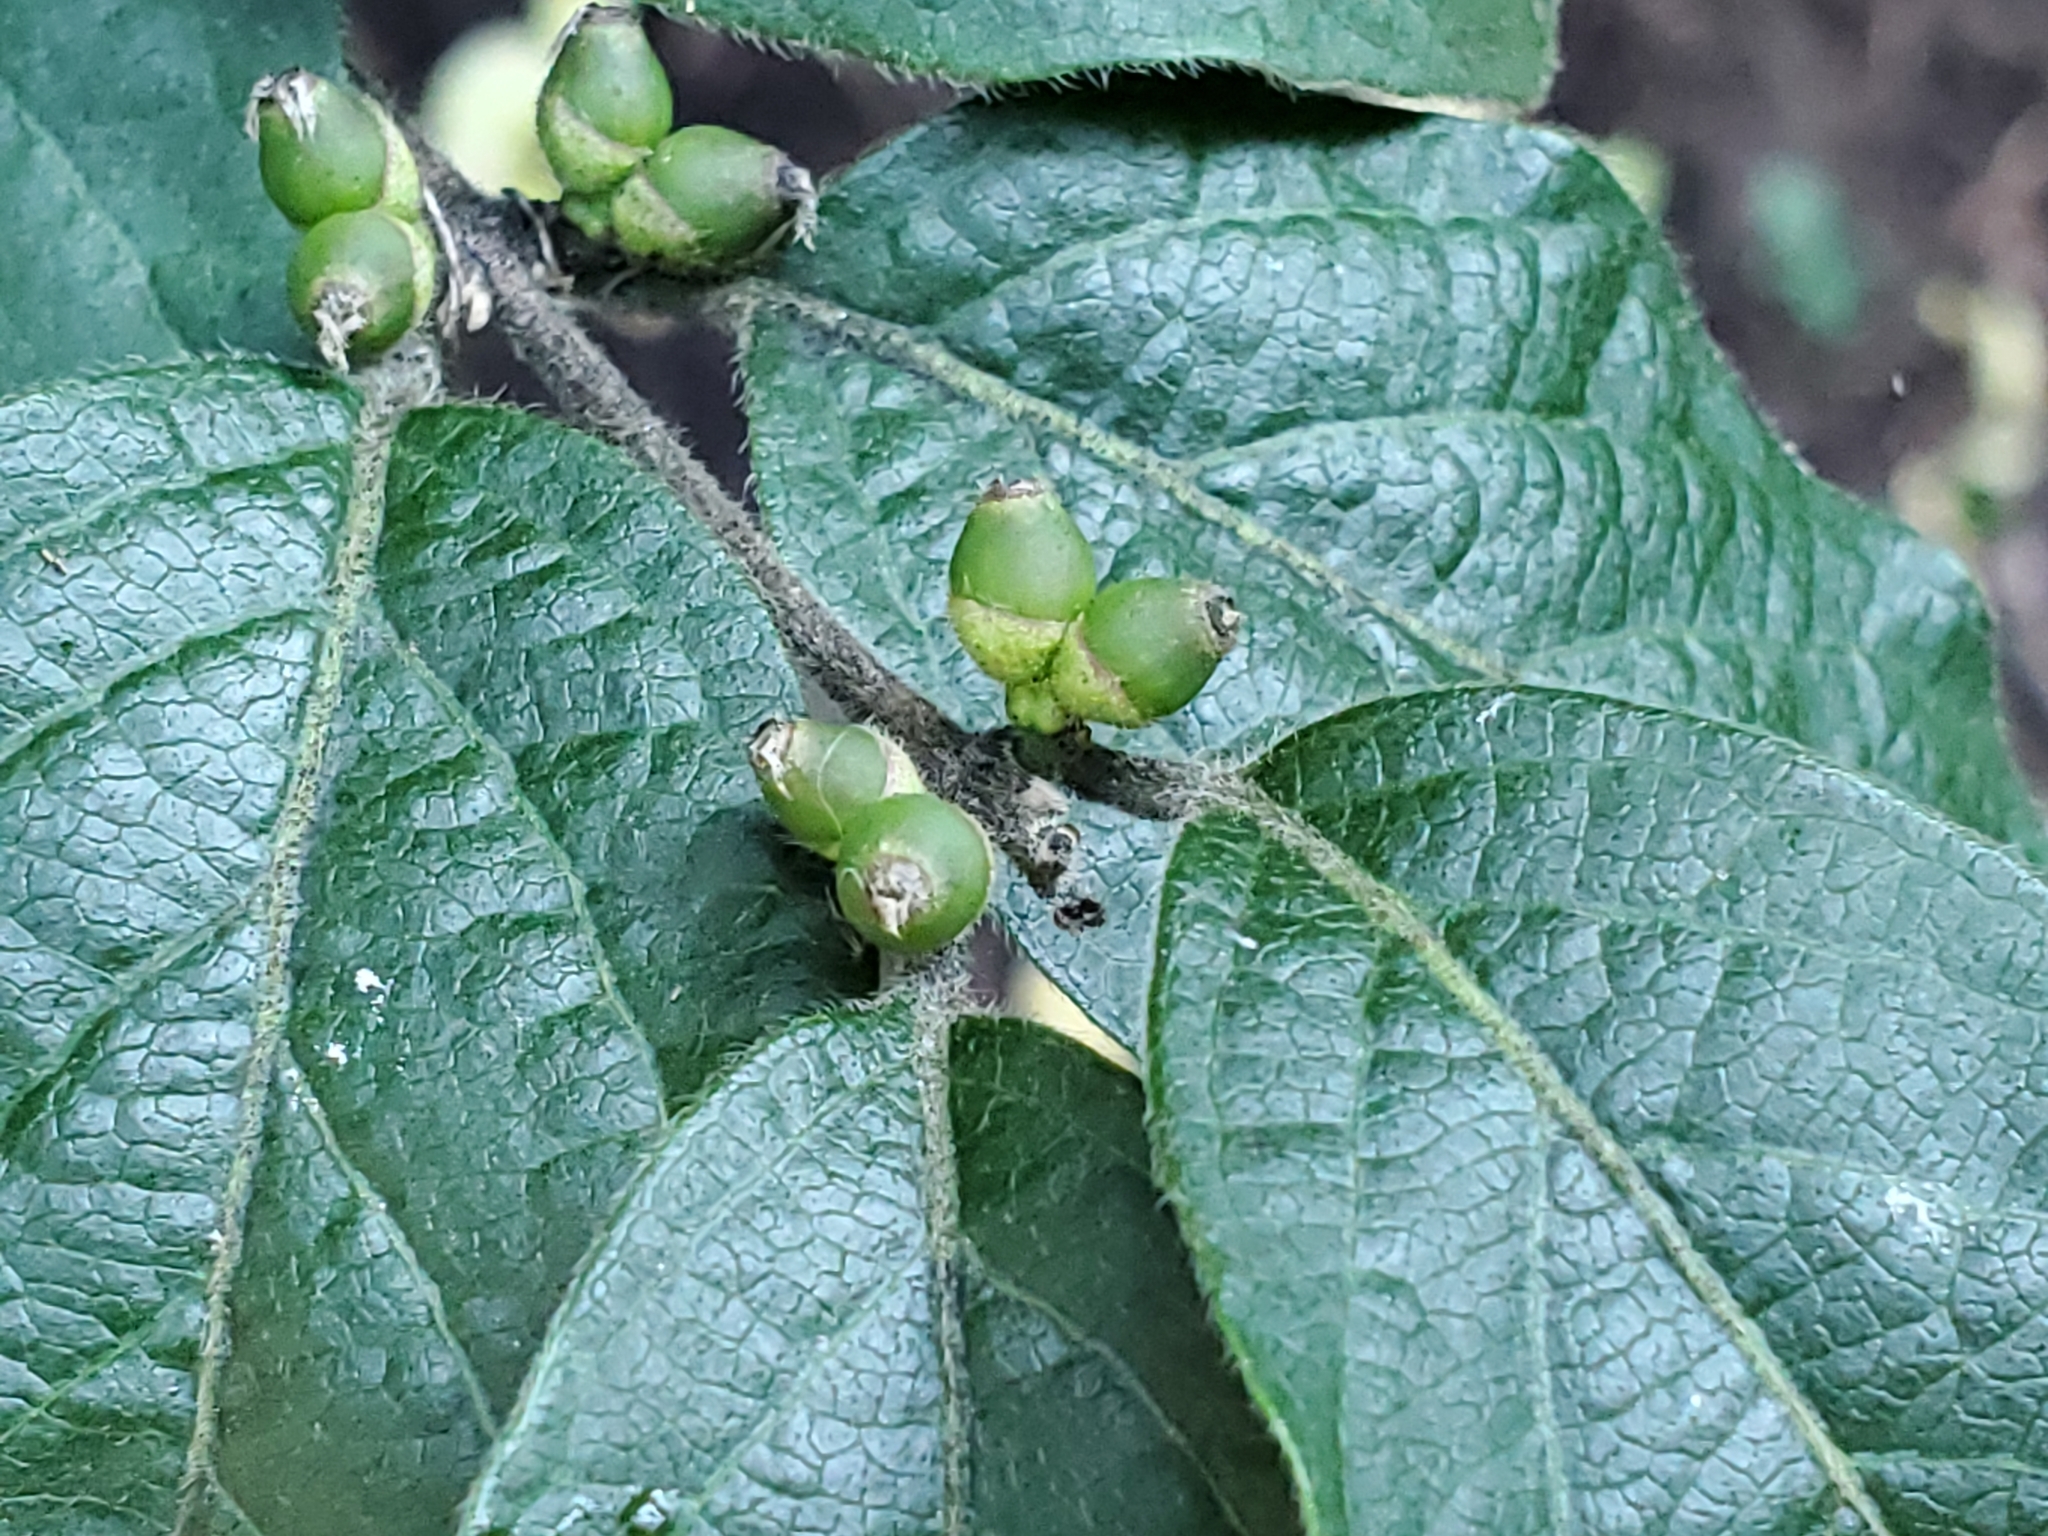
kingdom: Plantae
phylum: Tracheophyta
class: Magnoliopsida
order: Dipsacales
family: Caprifoliaceae
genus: Lonicera
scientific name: Lonicera maackii
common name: Amur honeysuckle
